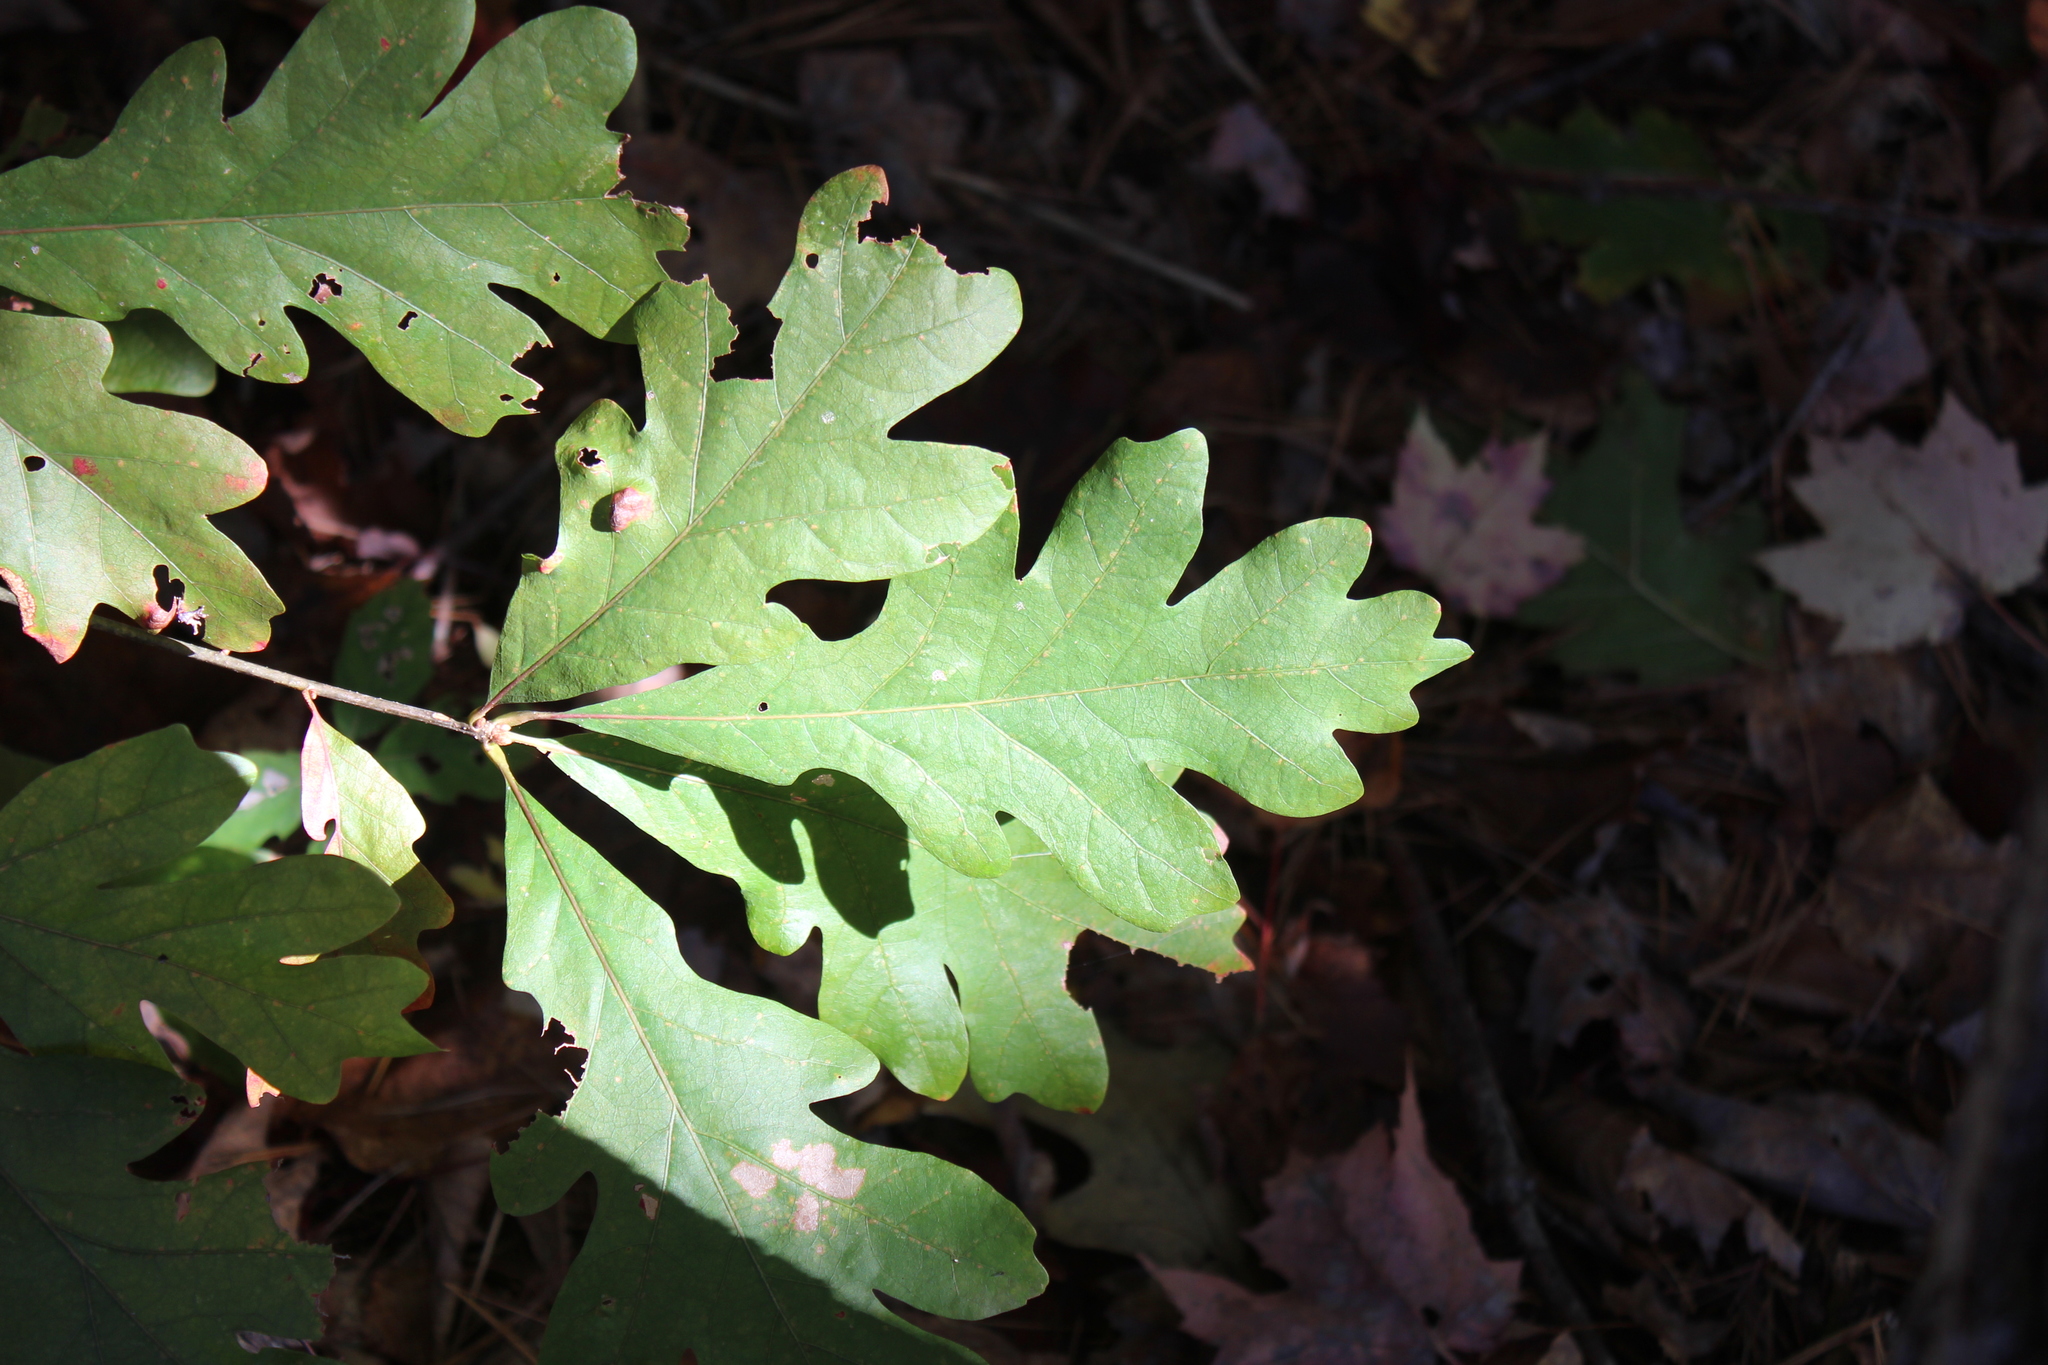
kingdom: Plantae
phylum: Tracheophyta
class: Magnoliopsida
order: Fagales
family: Fagaceae
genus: Quercus
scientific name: Quercus alba
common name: White oak
